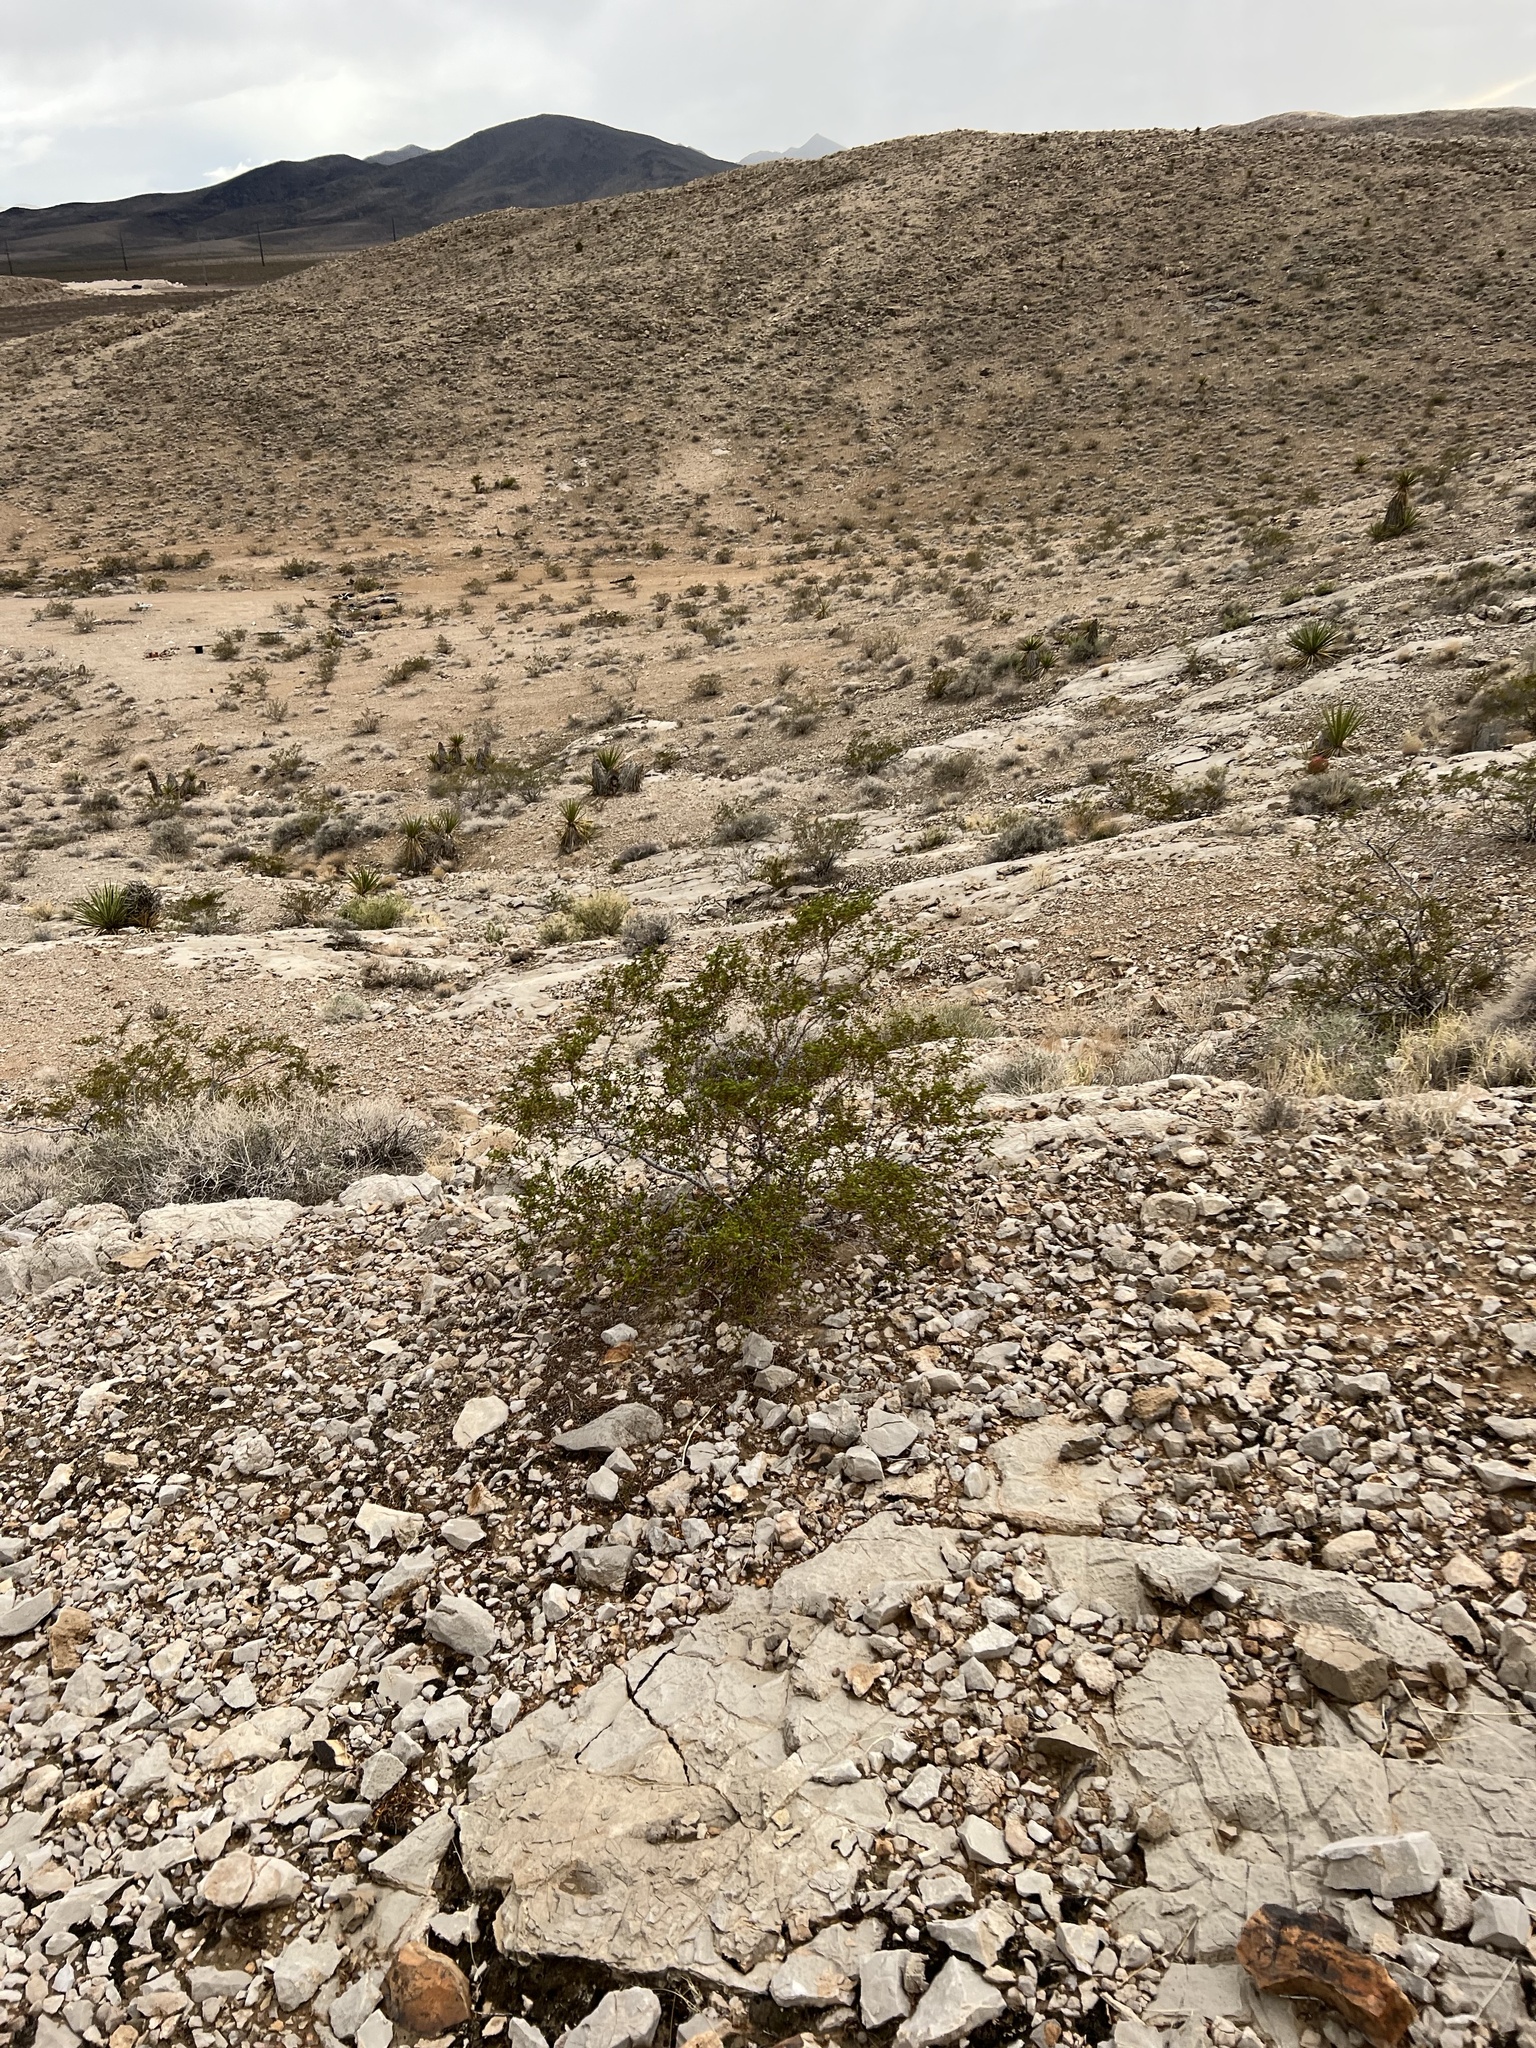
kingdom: Plantae
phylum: Tracheophyta
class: Magnoliopsida
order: Zygophyllales
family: Zygophyllaceae
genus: Larrea
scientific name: Larrea tridentata
